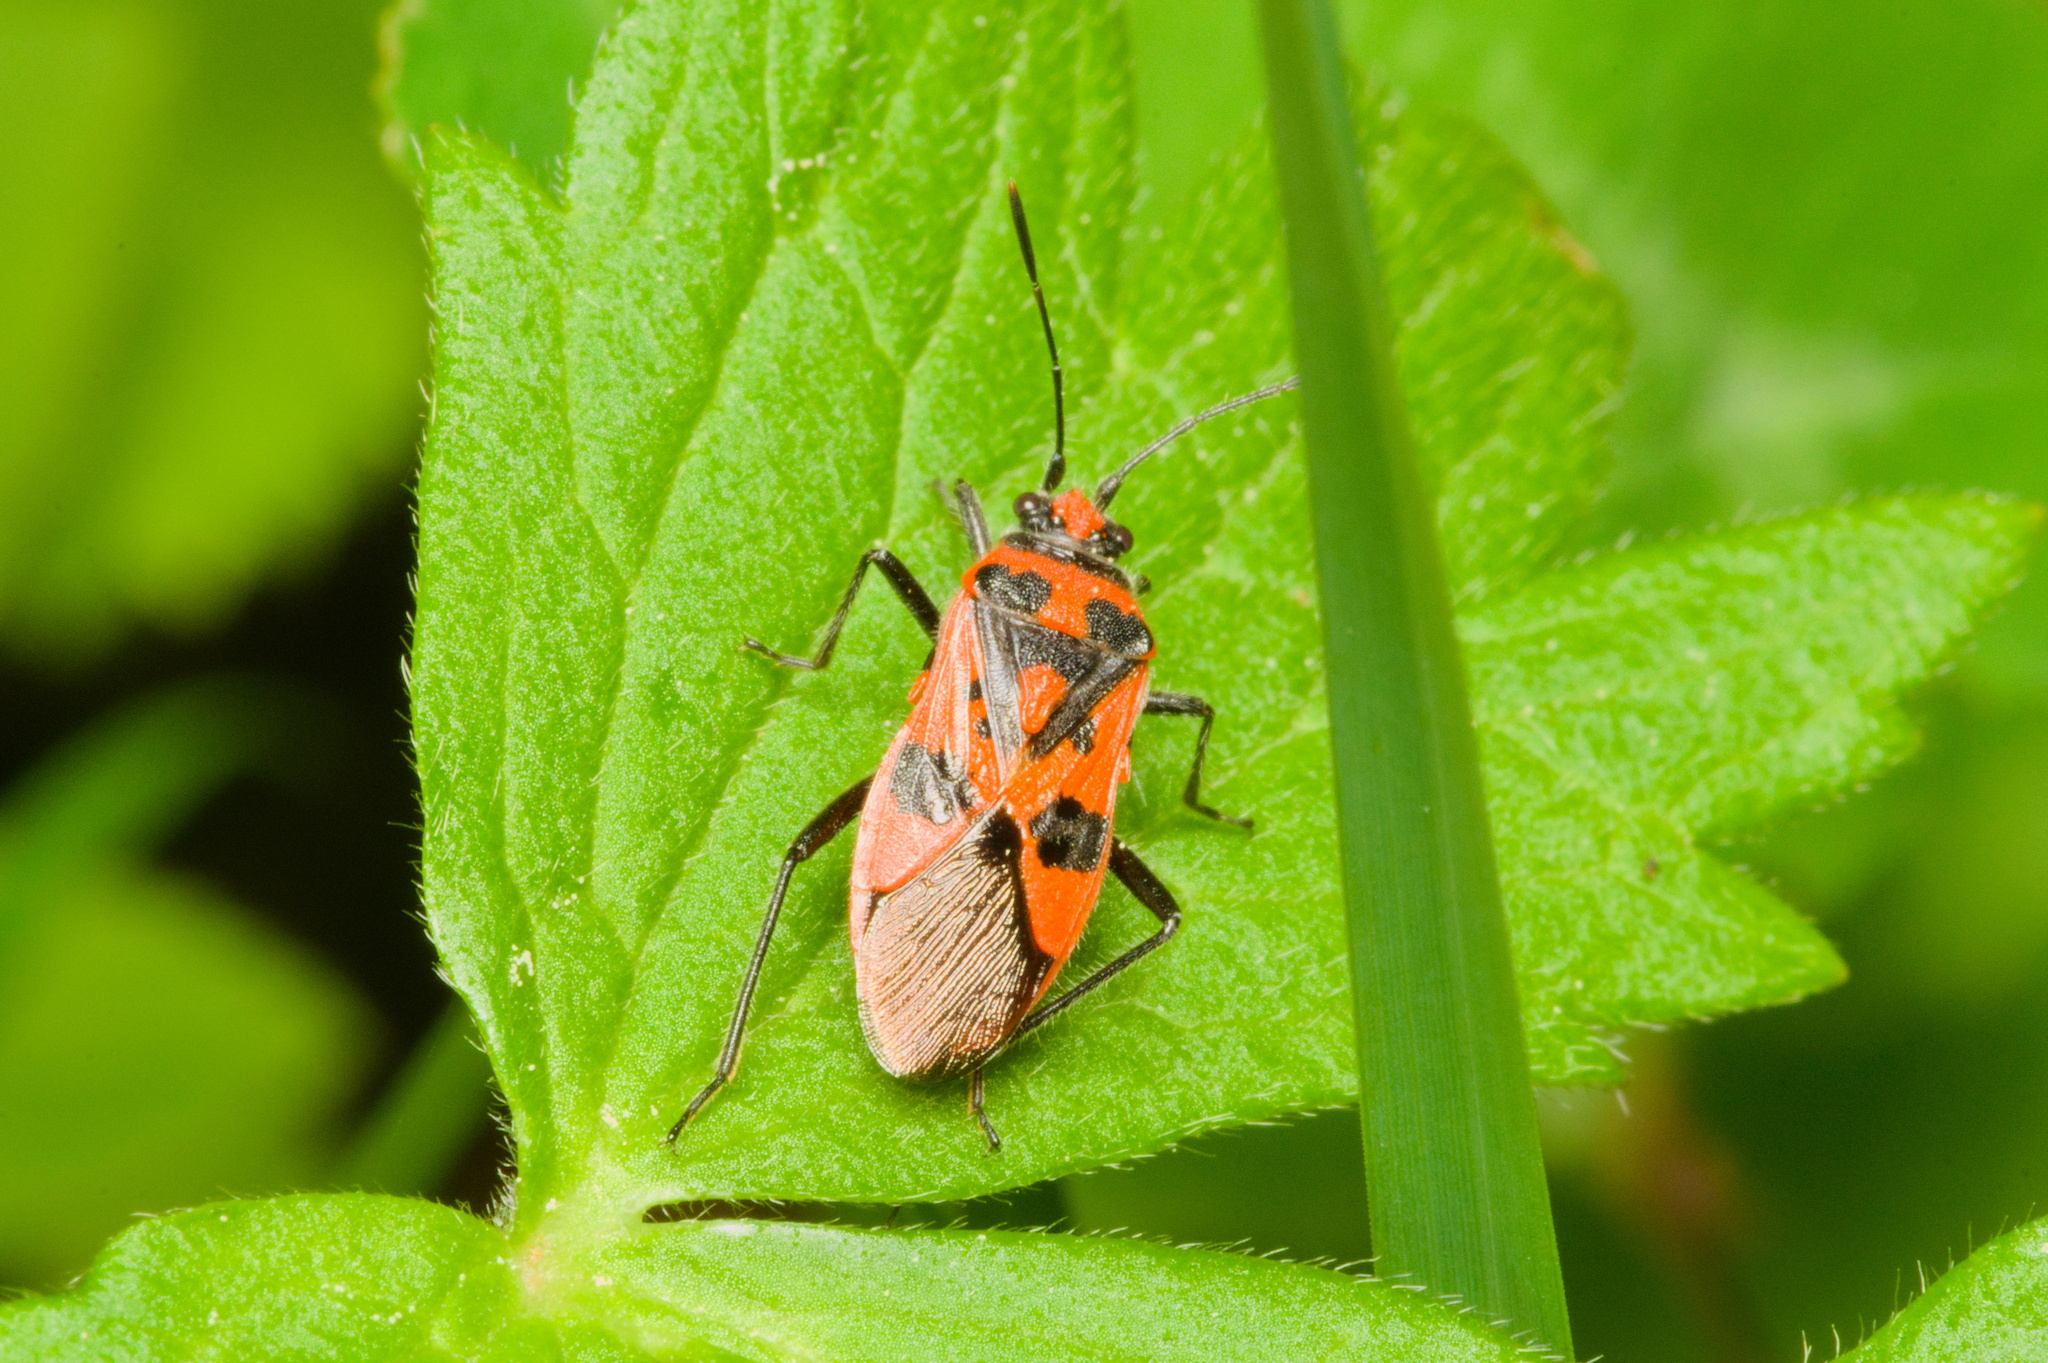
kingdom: Animalia
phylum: Arthropoda
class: Insecta
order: Hemiptera
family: Rhopalidae
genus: Corizus
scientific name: Corizus hyoscyami
